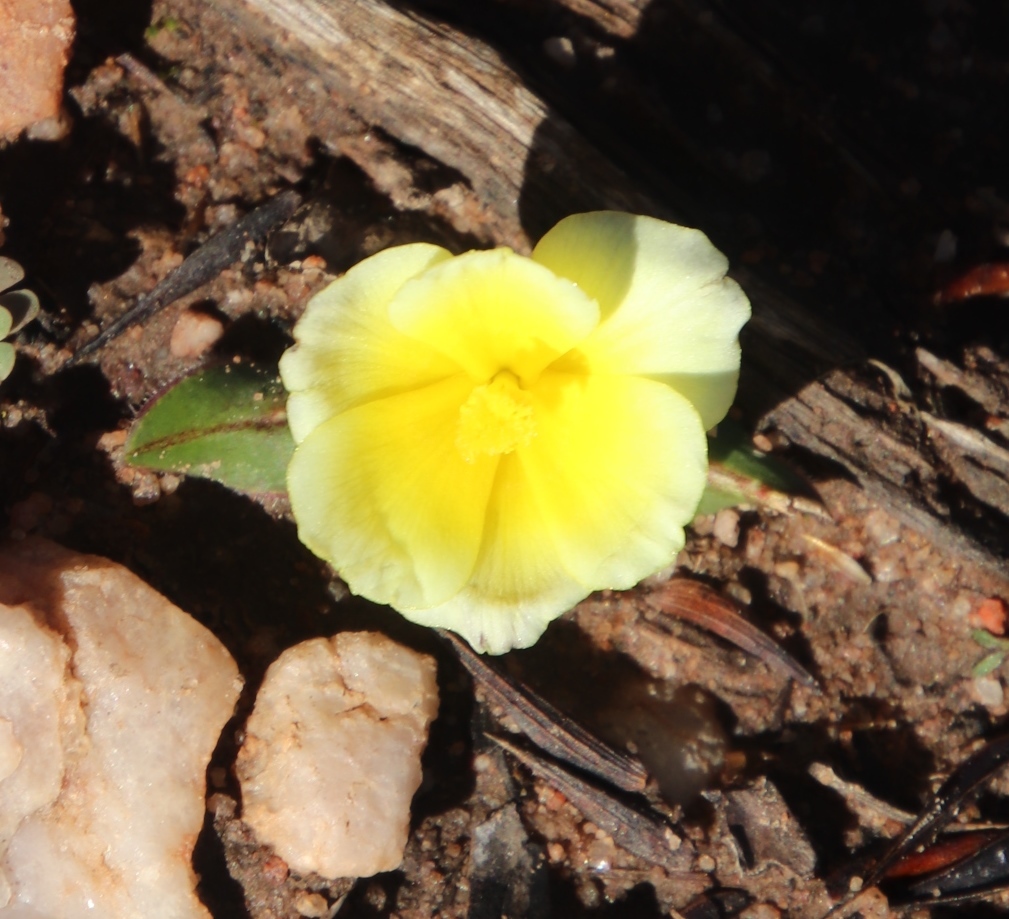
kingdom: Plantae
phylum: Tracheophyta
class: Liliopsida
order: Asparagales
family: Iridaceae
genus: Moraea
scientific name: Moraea luteoalba
